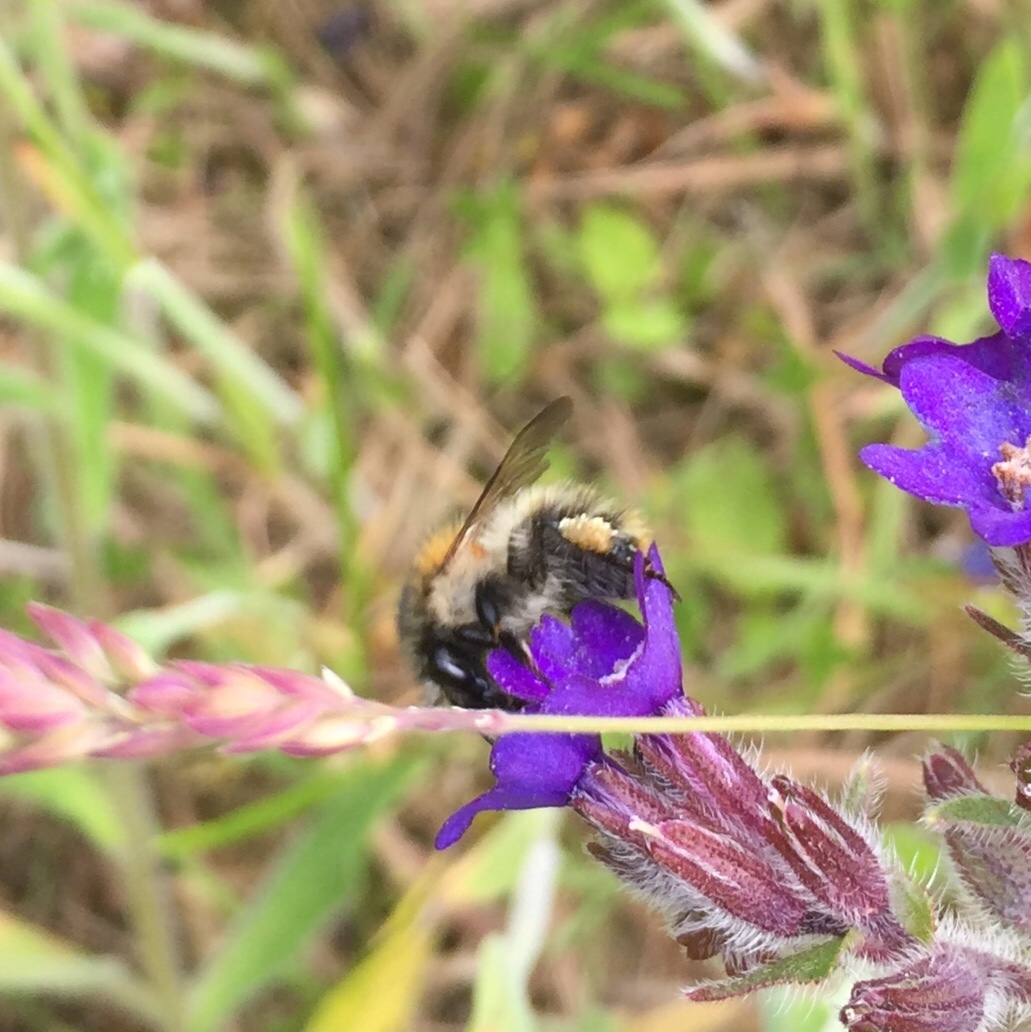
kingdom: Animalia
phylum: Arthropoda
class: Insecta
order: Hymenoptera
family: Apidae
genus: Bombus
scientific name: Bombus pascuorum
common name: Common carder bee
